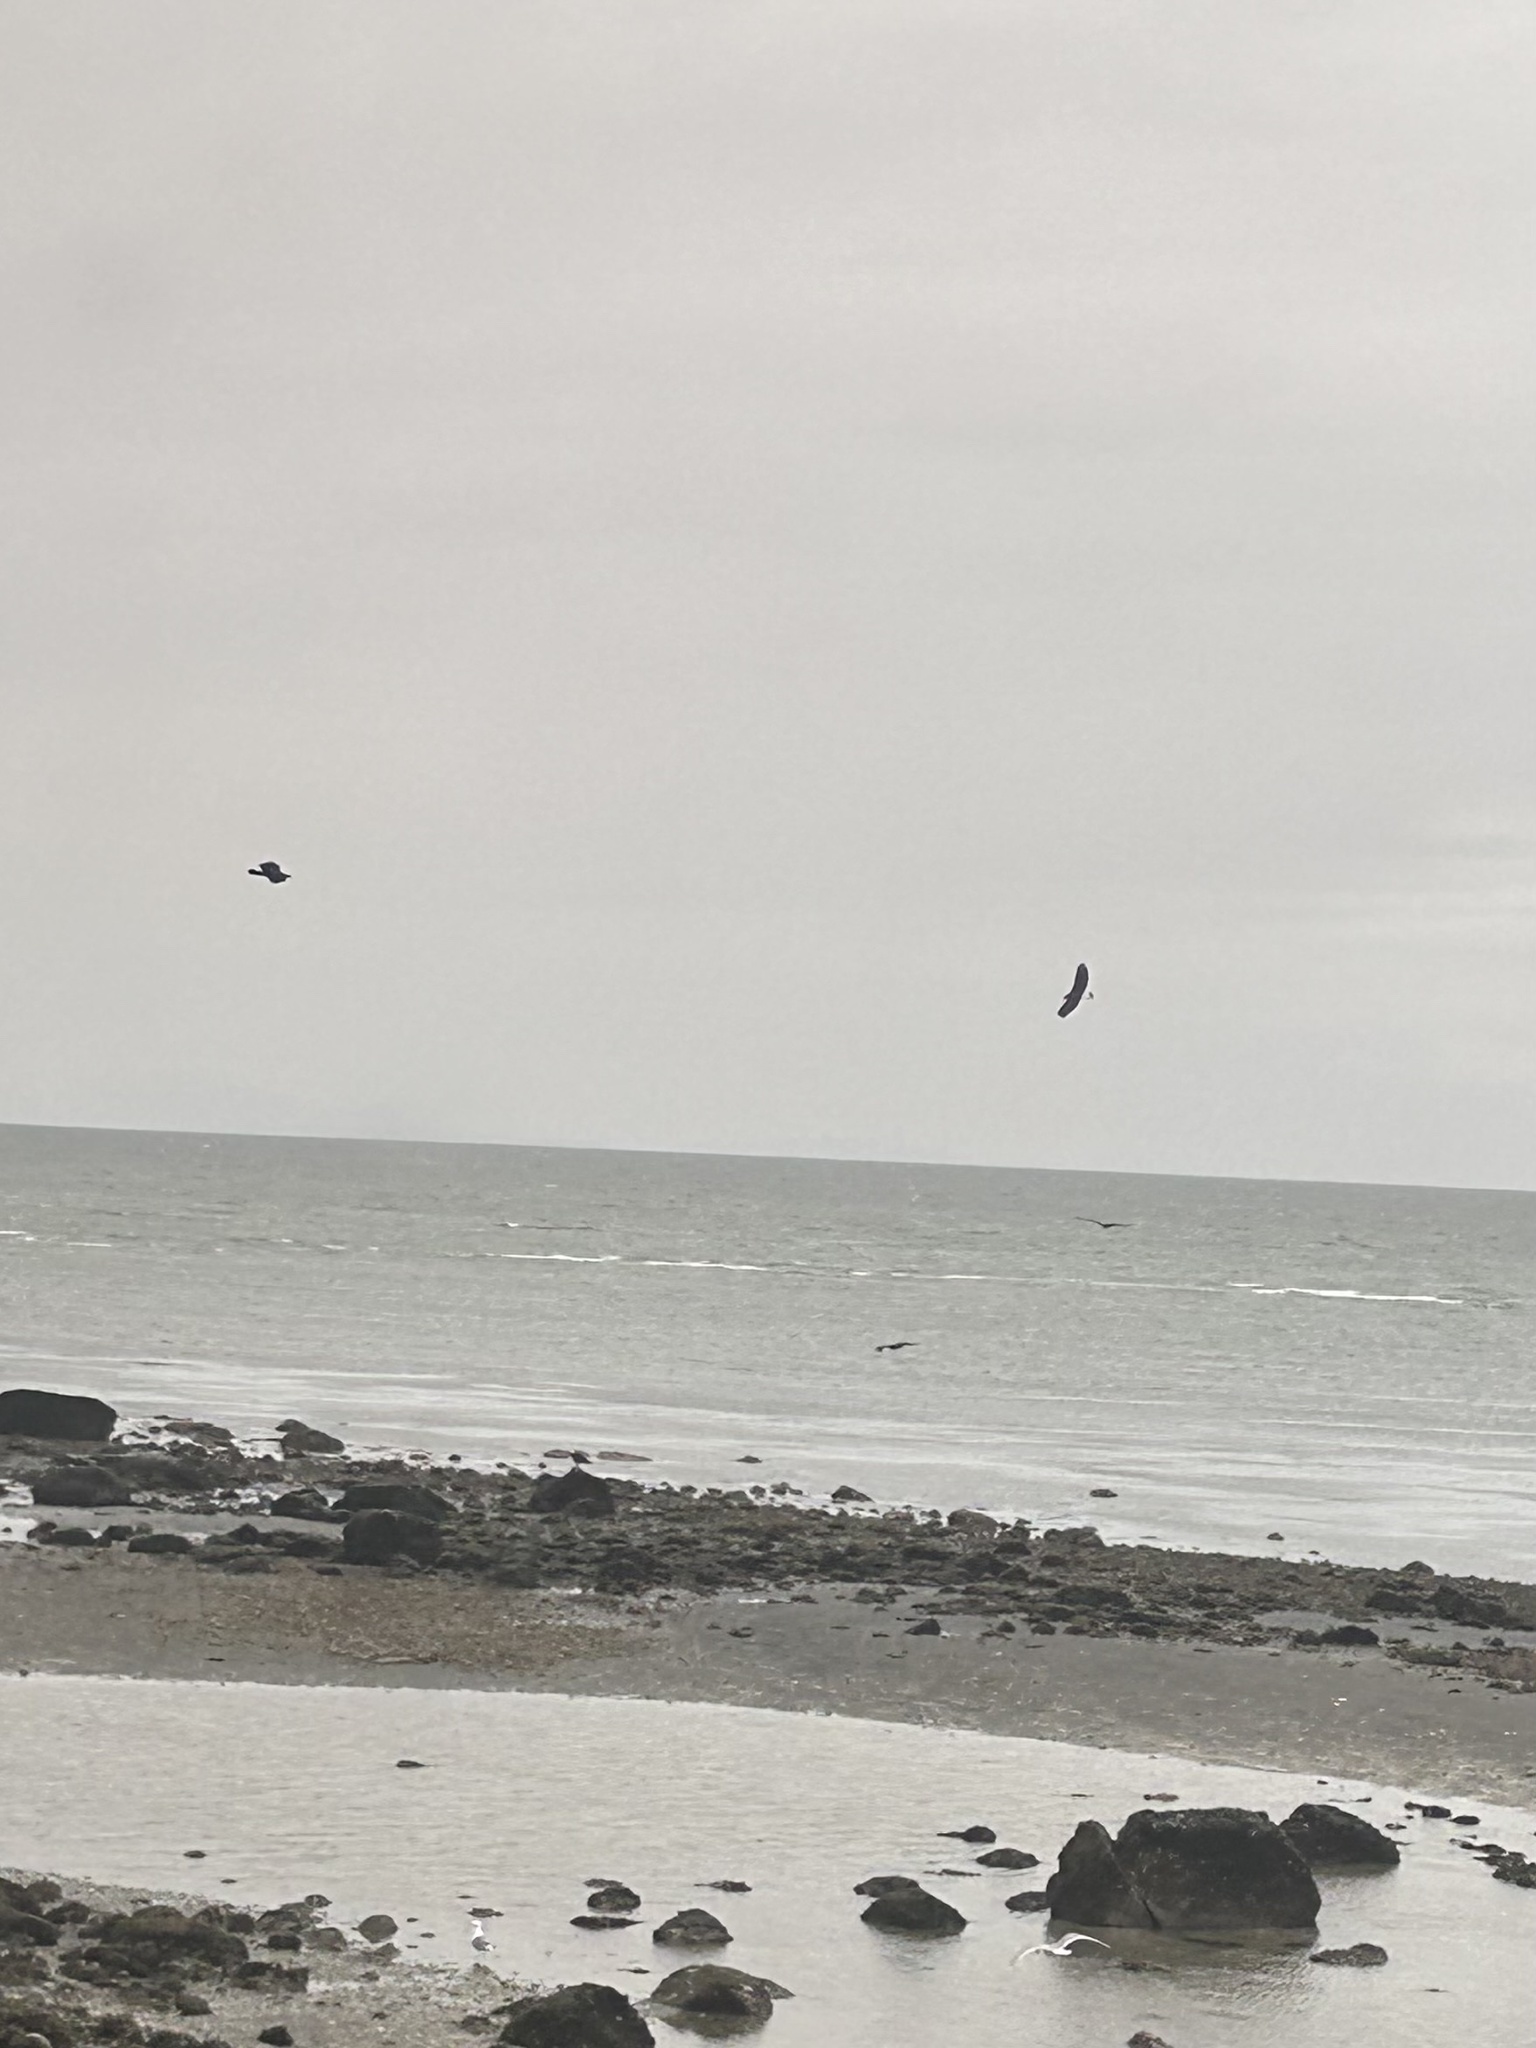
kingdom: Animalia
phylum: Chordata
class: Aves
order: Accipitriformes
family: Accipitridae
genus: Haliaeetus
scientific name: Haliaeetus leucocephalus
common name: Bald eagle
